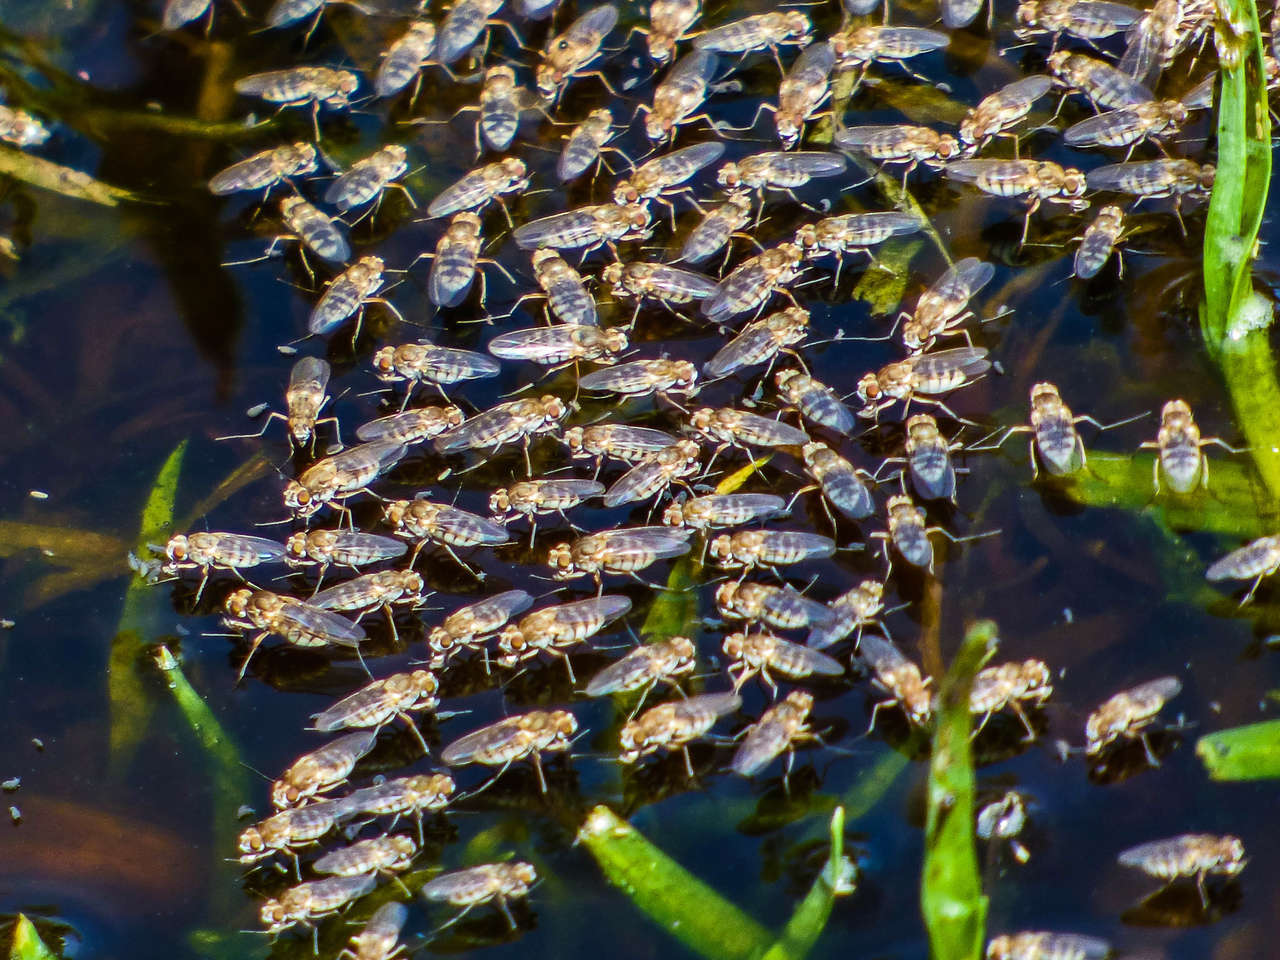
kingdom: Animalia
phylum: Arthropoda
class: Insecta
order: Diptera
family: Ephydridae
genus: Brachydeutera
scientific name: Brachydeutera sydneyensis
